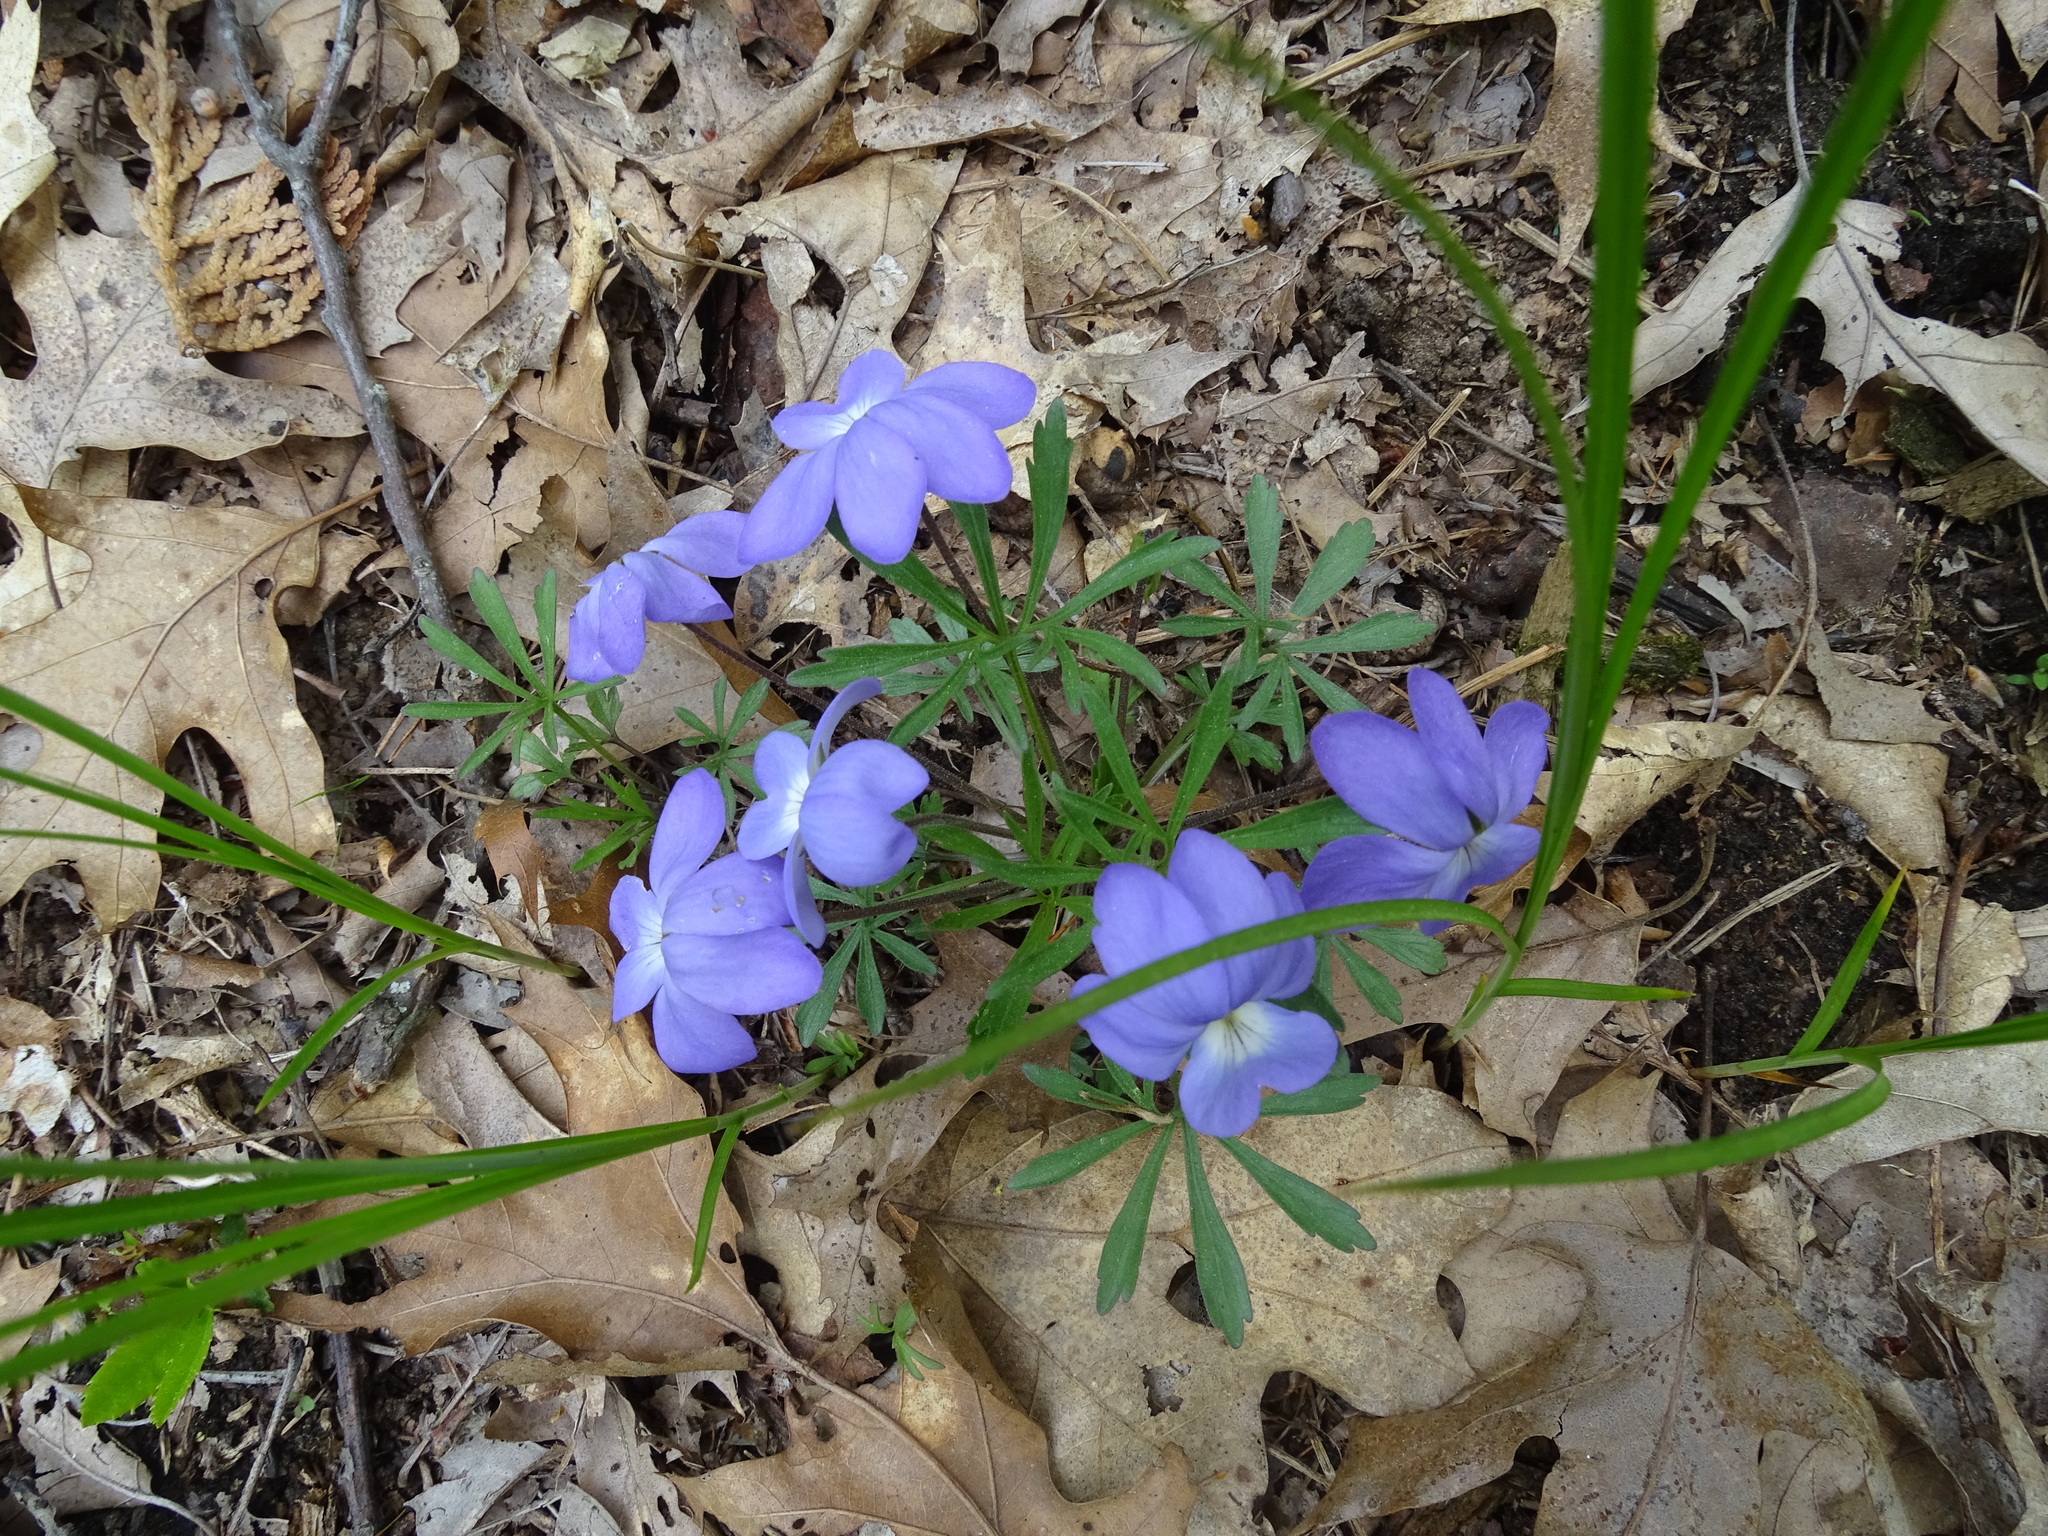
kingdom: Plantae
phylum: Tracheophyta
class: Magnoliopsida
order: Malpighiales
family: Violaceae
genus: Viola
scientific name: Viola pedata
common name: Pansy violet
